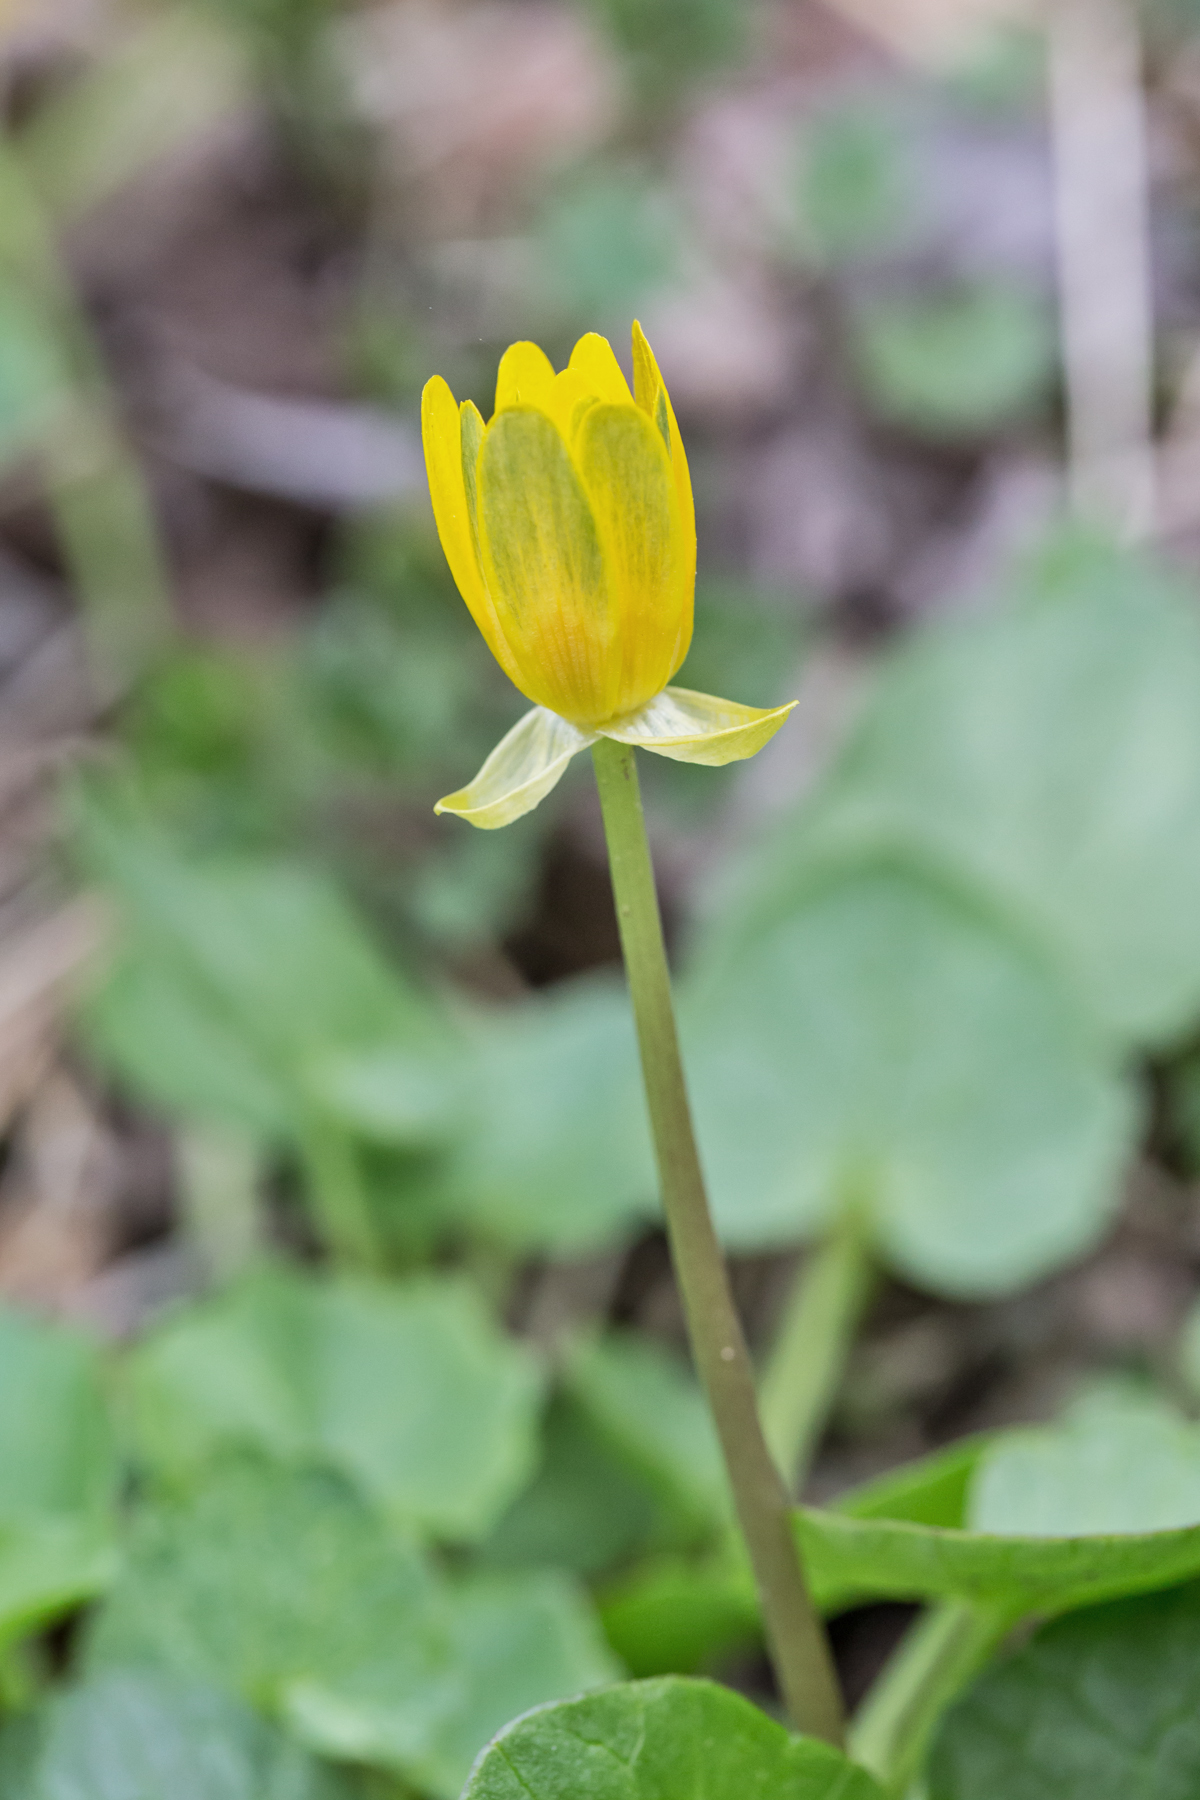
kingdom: Plantae
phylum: Tracheophyta
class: Magnoliopsida
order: Ranunculales
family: Ranunculaceae
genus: Ficaria
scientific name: Ficaria verna
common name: Lesser celandine
